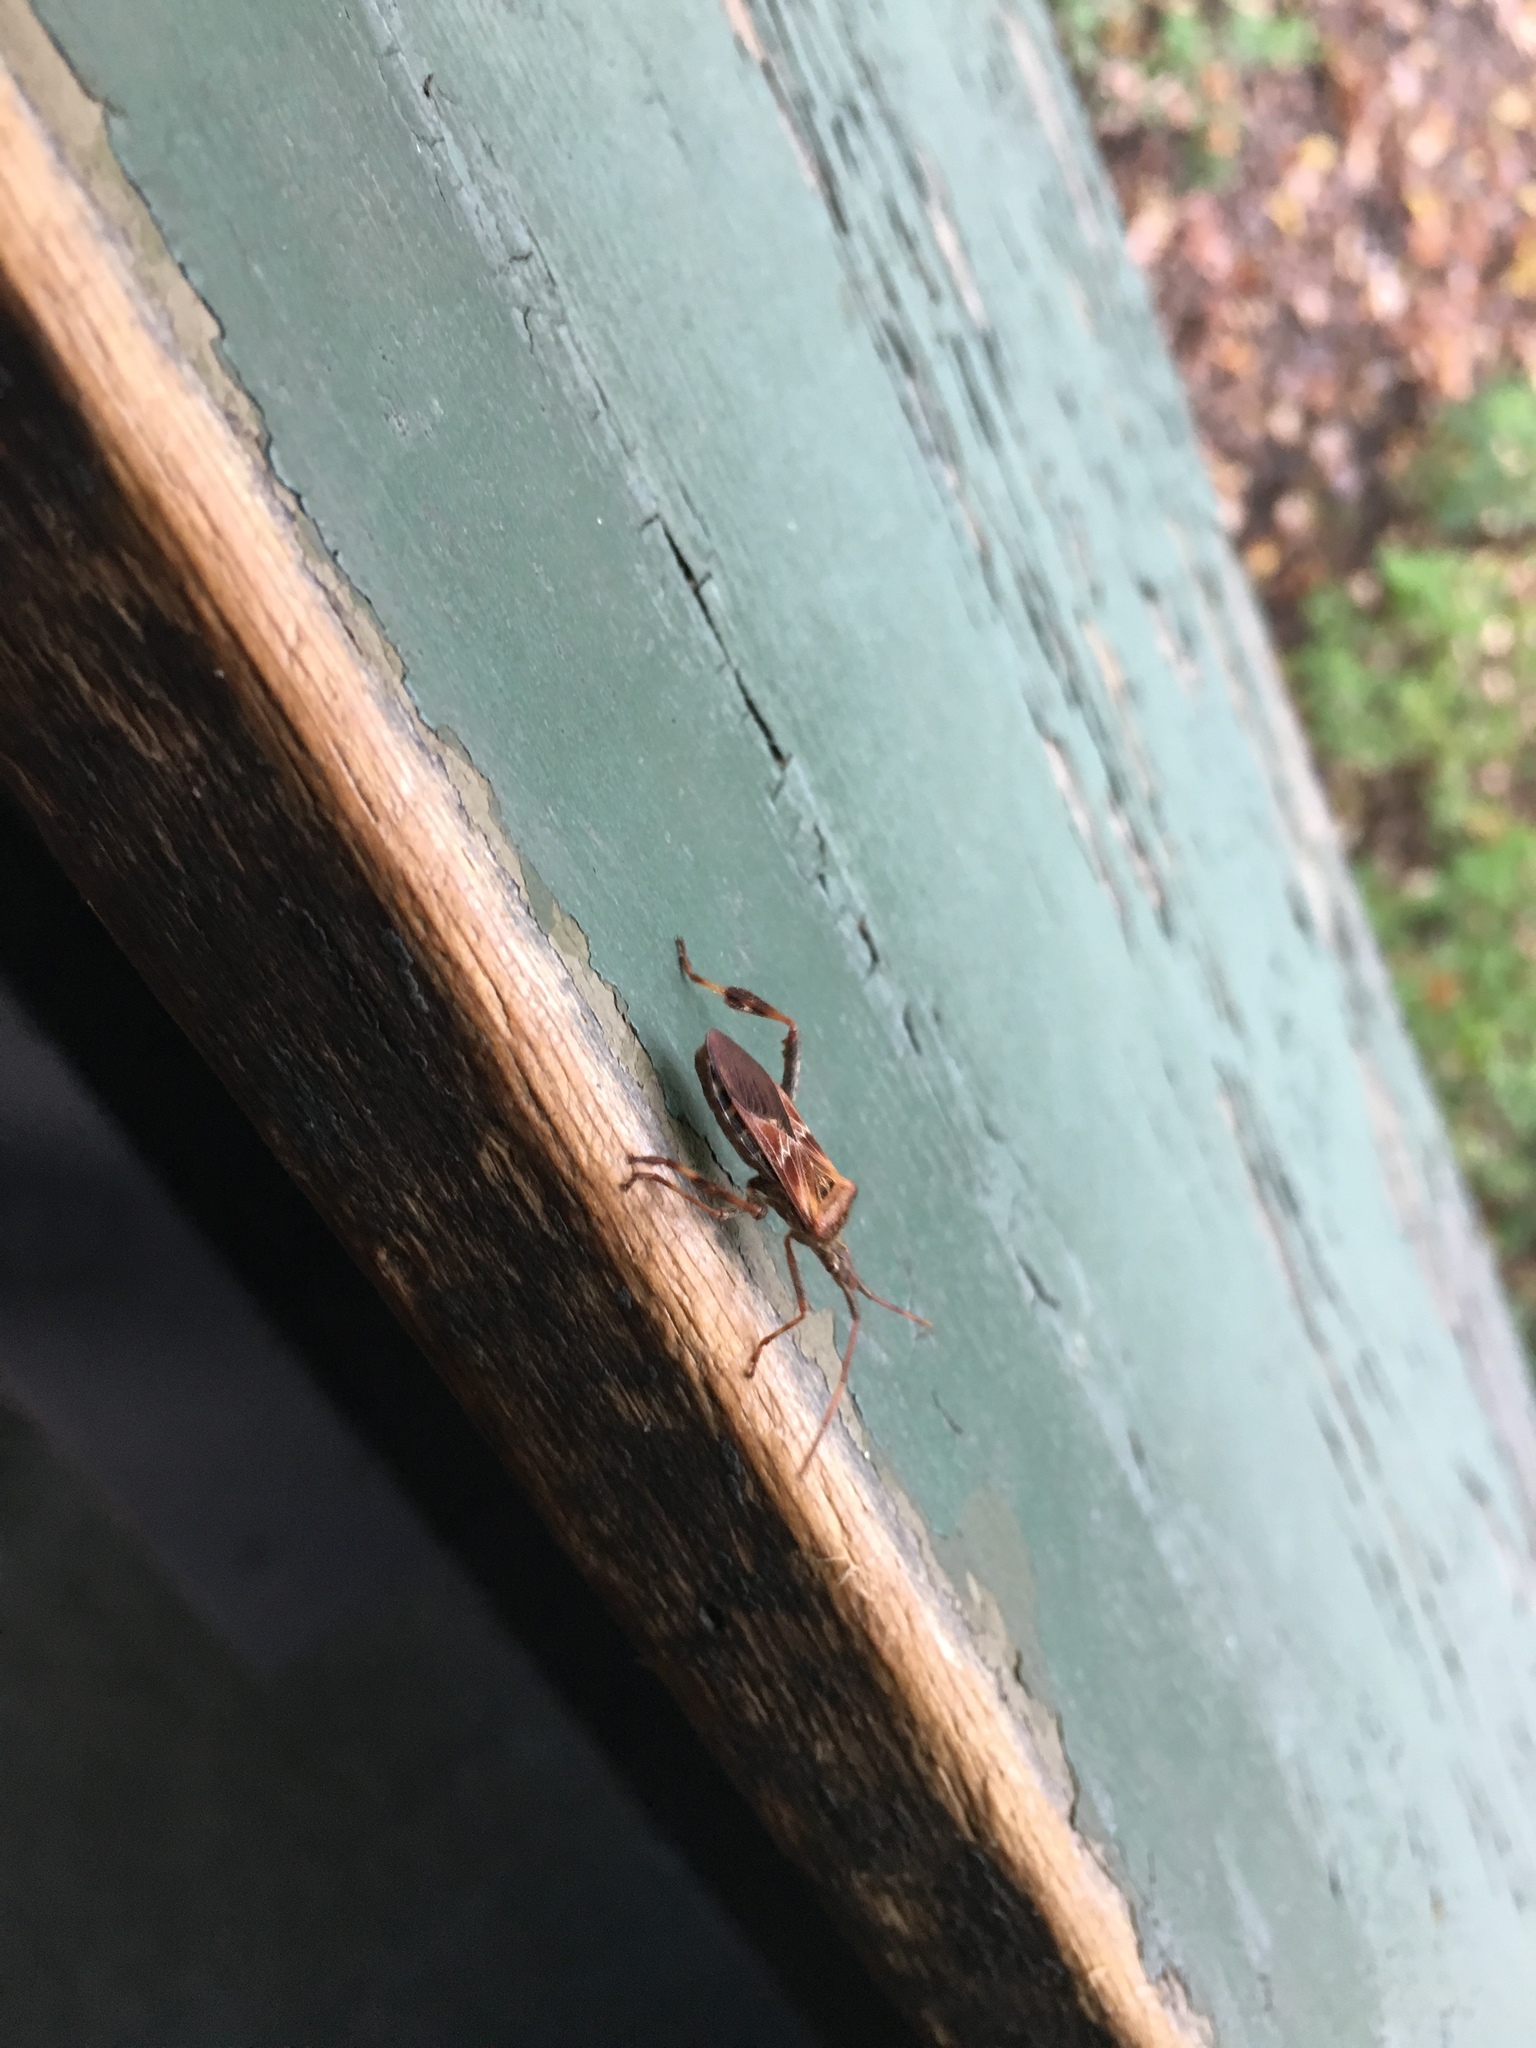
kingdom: Animalia
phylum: Arthropoda
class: Insecta
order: Hemiptera
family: Coreidae
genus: Leptoglossus
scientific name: Leptoglossus occidentalis
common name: Western conifer-seed bug
